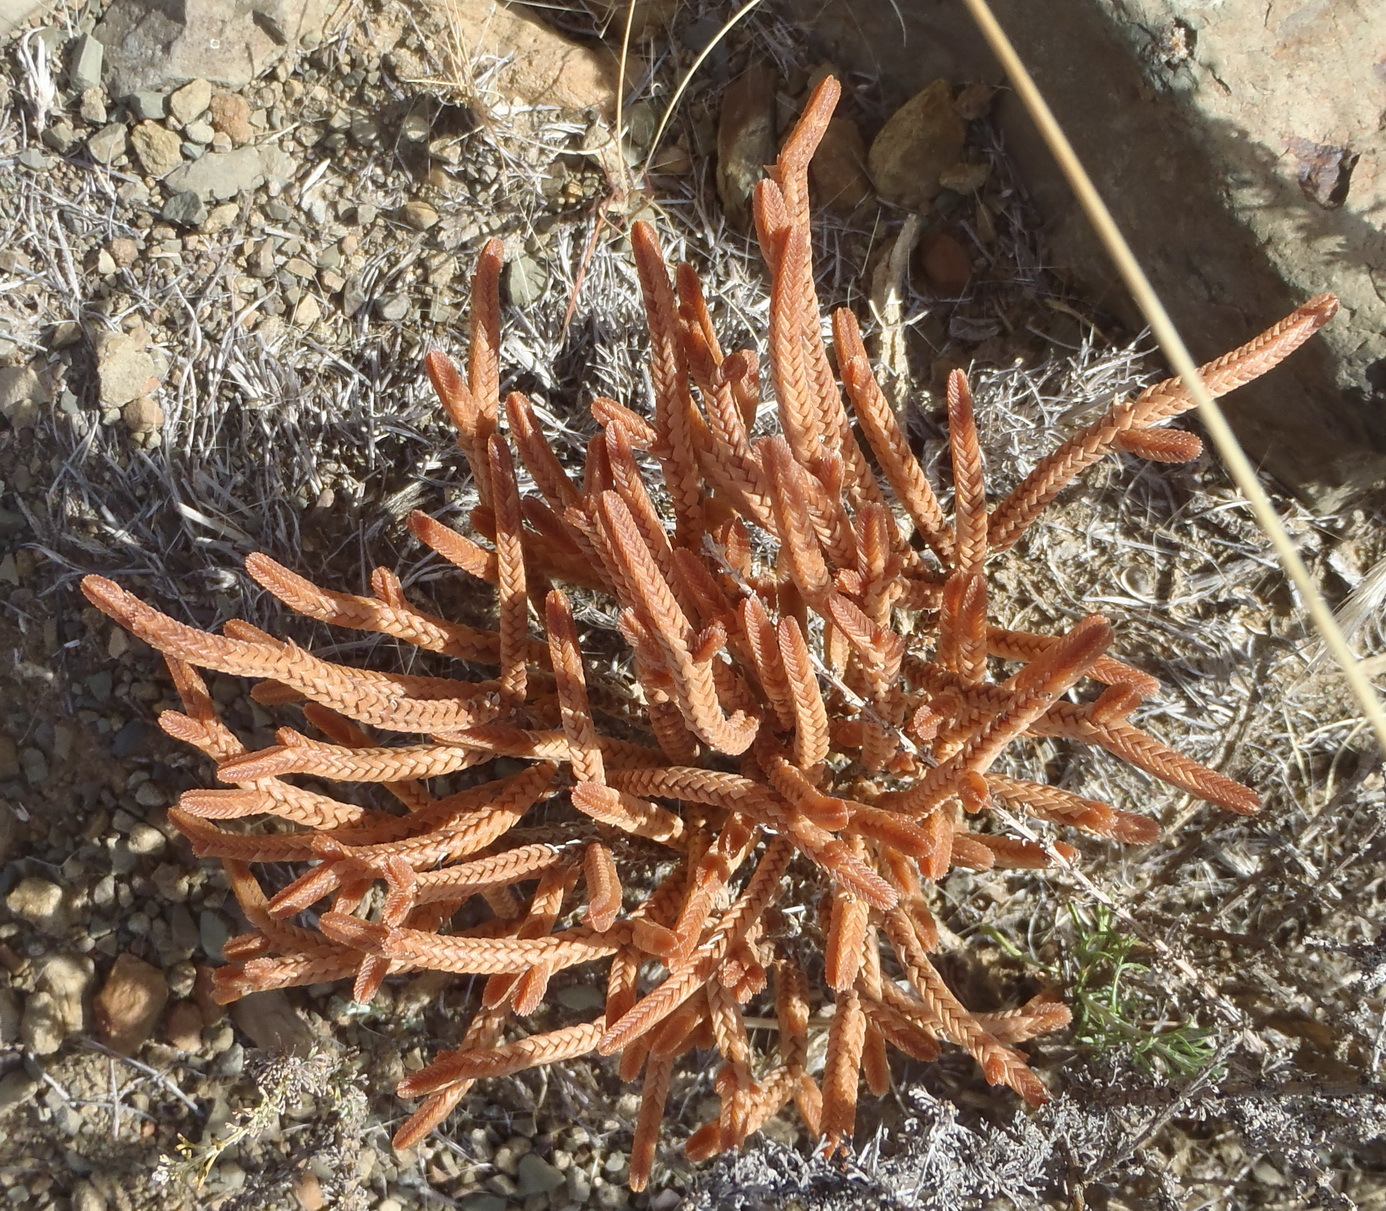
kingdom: Plantae
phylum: Tracheophyta
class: Magnoliopsida
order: Saxifragales
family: Crassulaceae
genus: Crassula
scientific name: Crassula muscosa
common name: Toy-cypress
